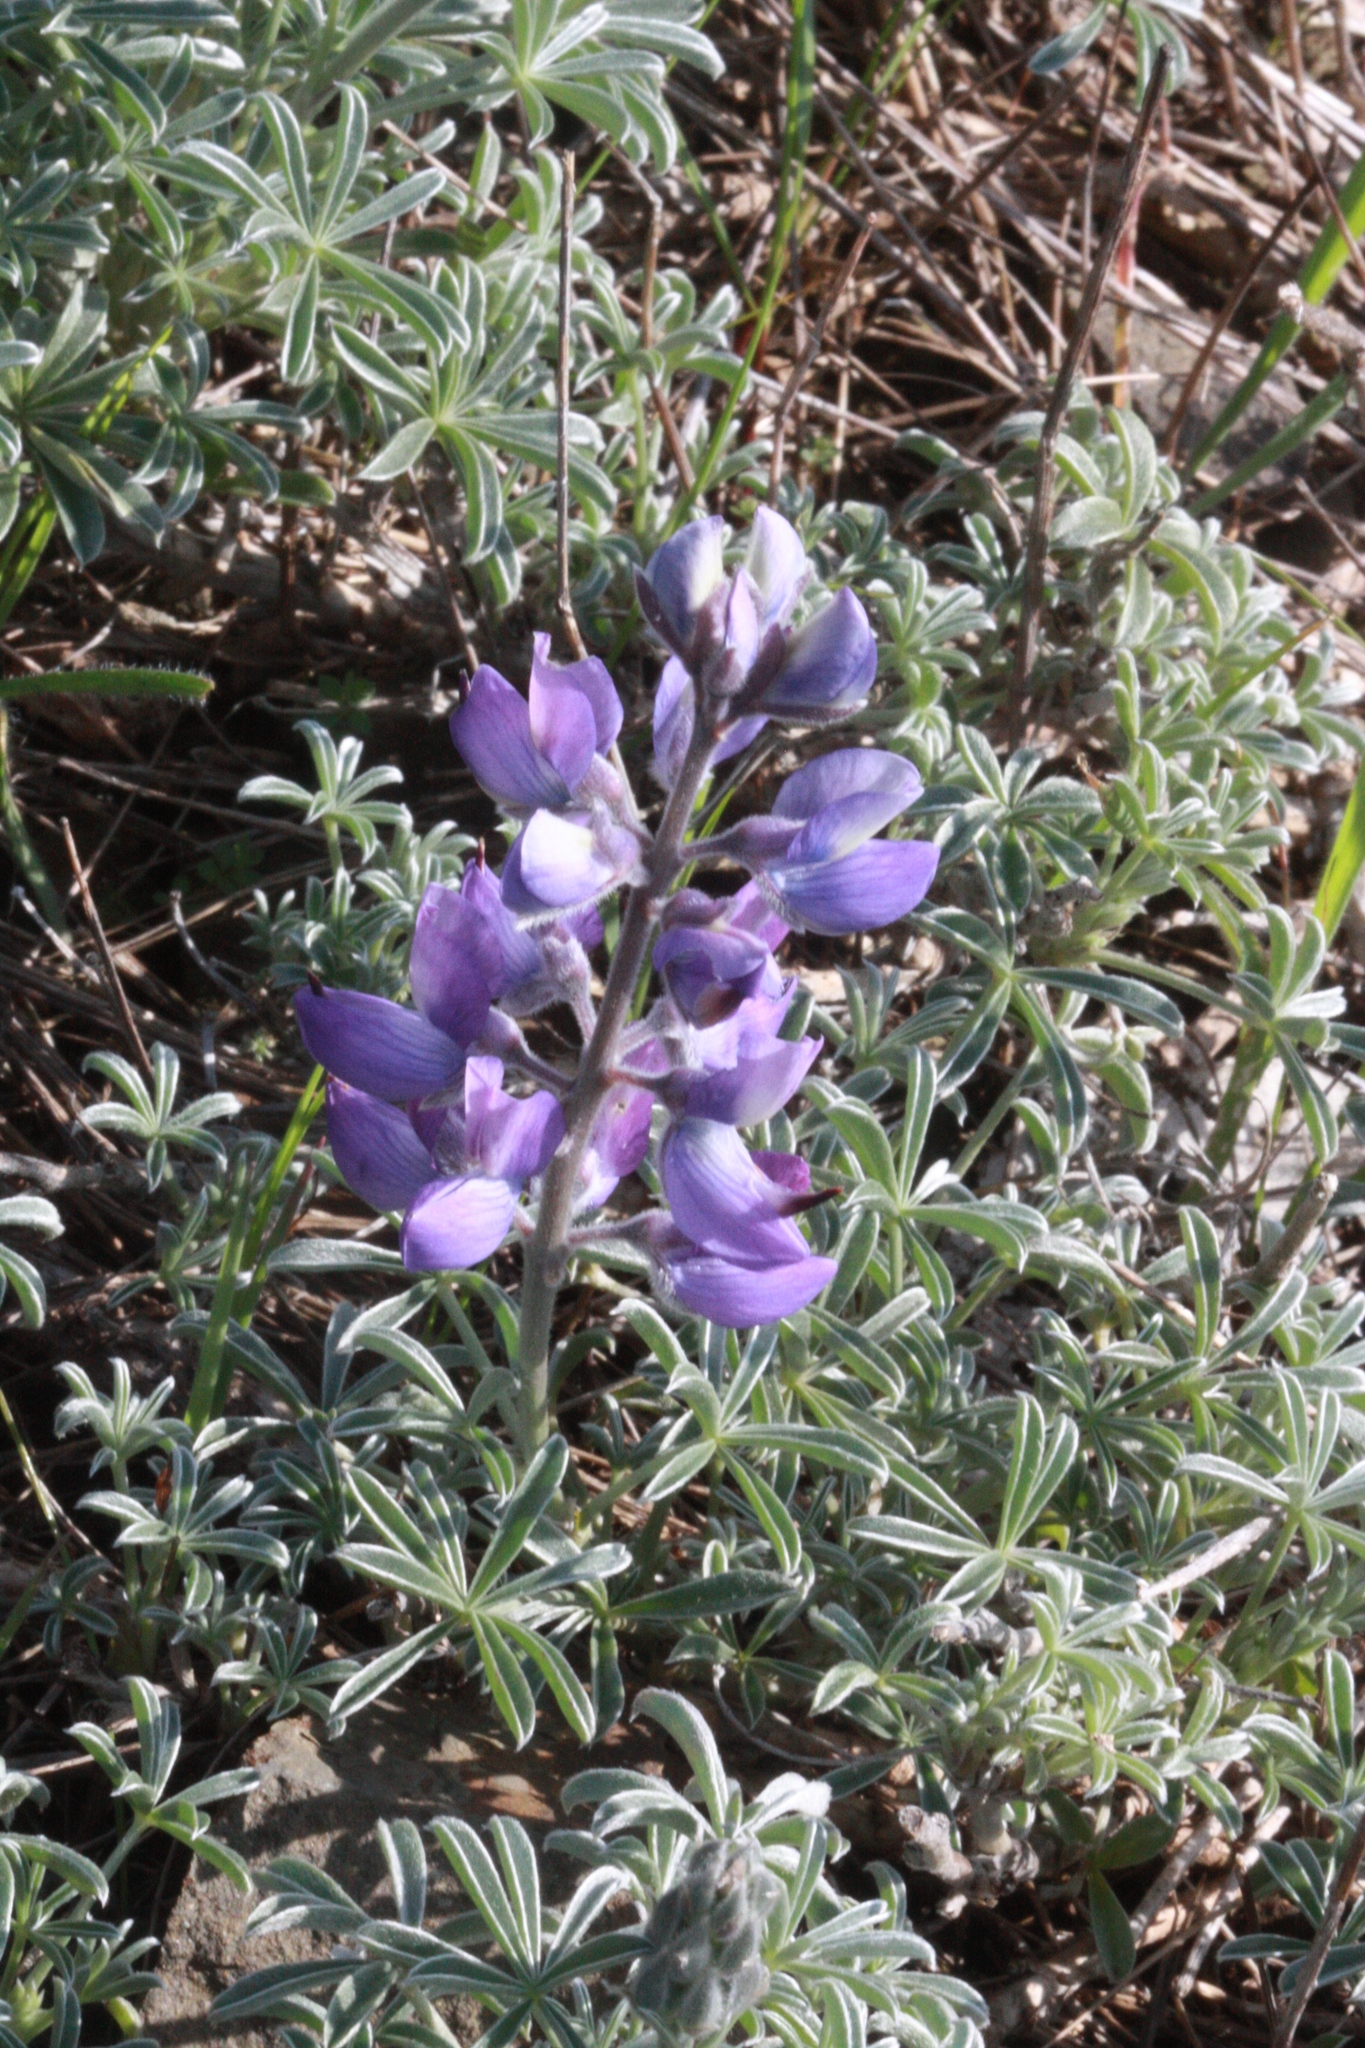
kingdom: Plantae
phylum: Tracheophyta
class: Magnoliopsida
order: Fabales
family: Fabaceae
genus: Lupinus
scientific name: Lupinus albifrons
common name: Foothill lupine
